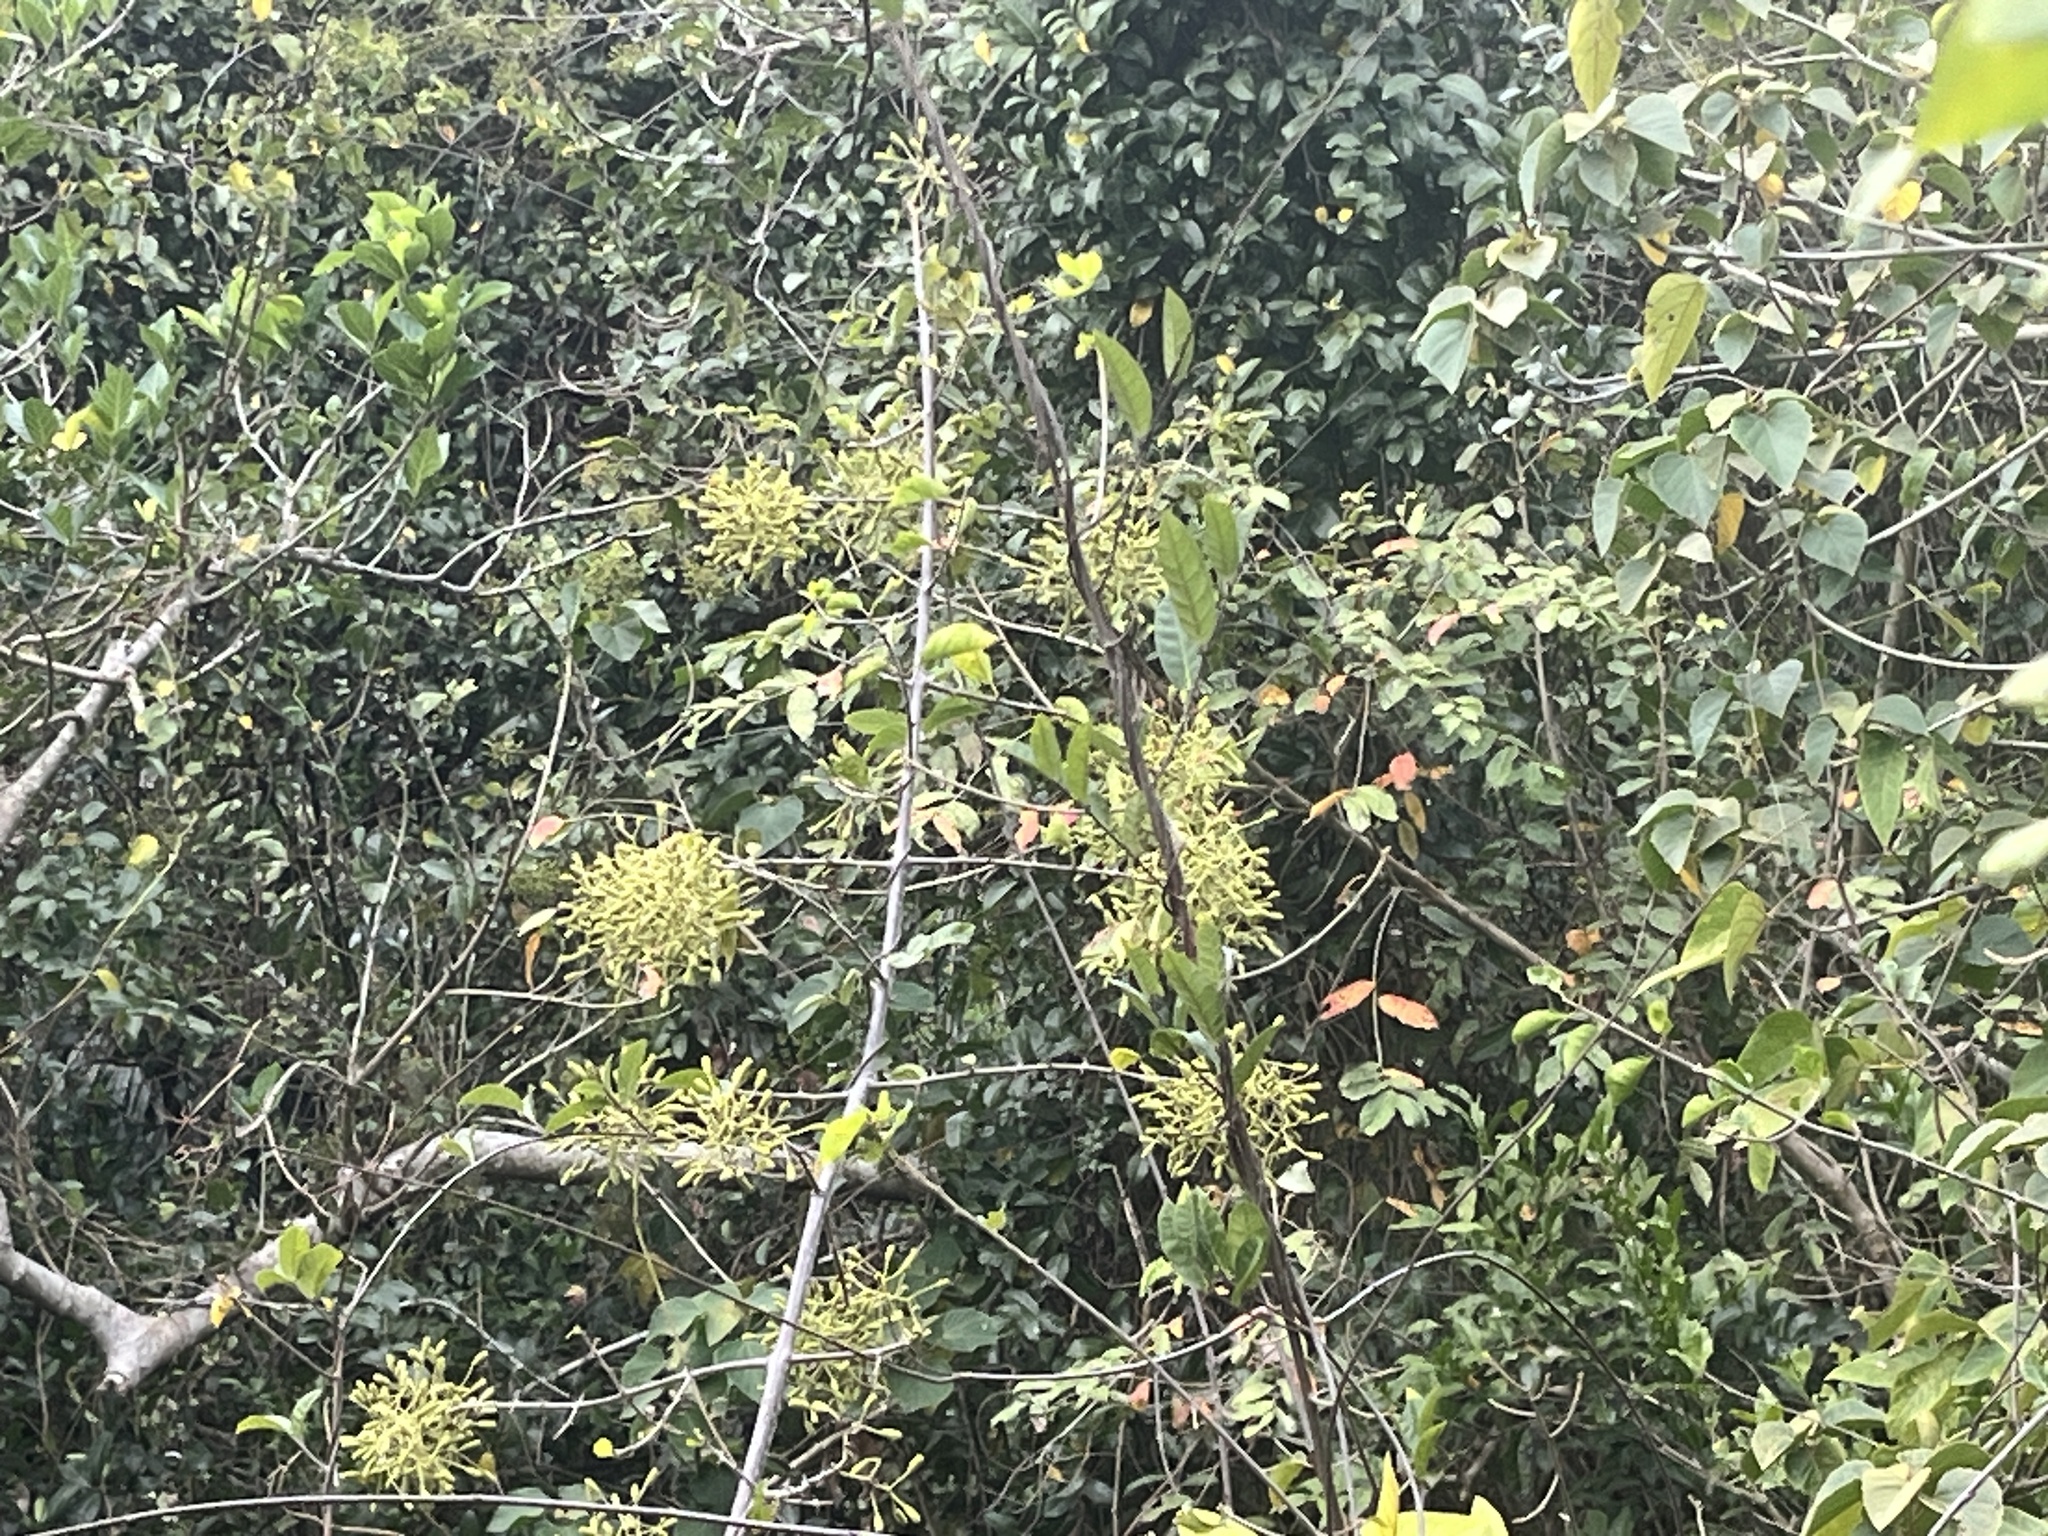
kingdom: Plantae
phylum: Tracheophyta
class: Magnoliopsida
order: Caryophyllales
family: Nyctaginaceae
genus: Pisonia
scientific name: Pisonia aculeata
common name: Cockspur vine
